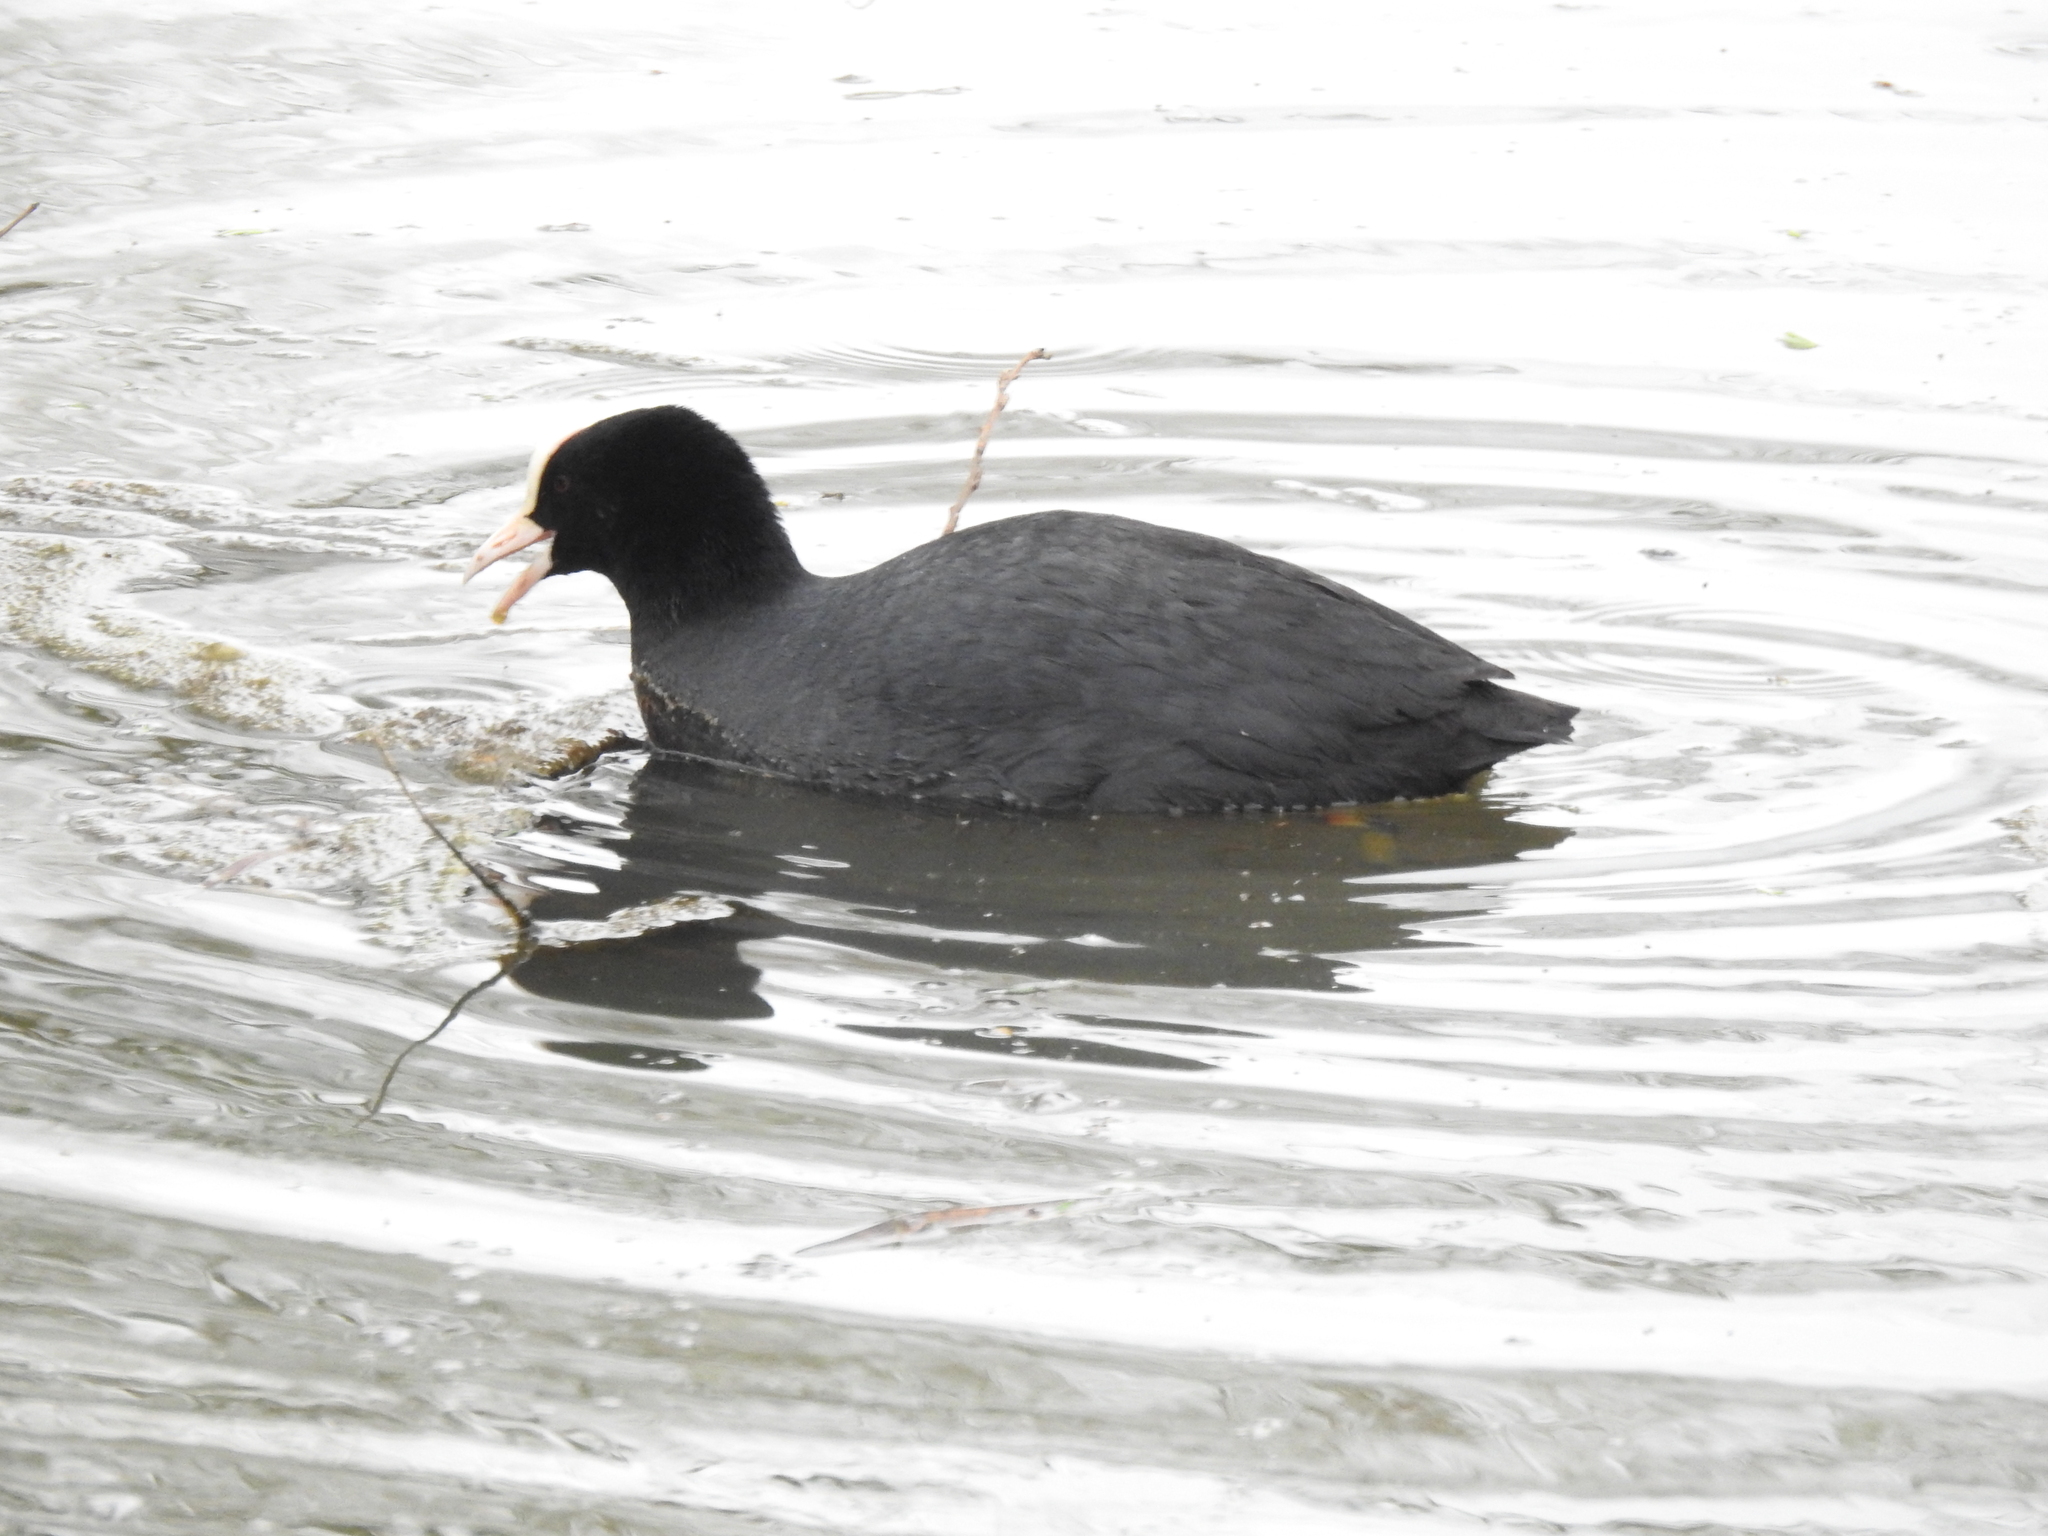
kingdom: Animalia
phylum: Chordata
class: Aves
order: Gruiformes
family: Rallidae
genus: Fulica
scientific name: Fulica atra
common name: Eurasian coot
